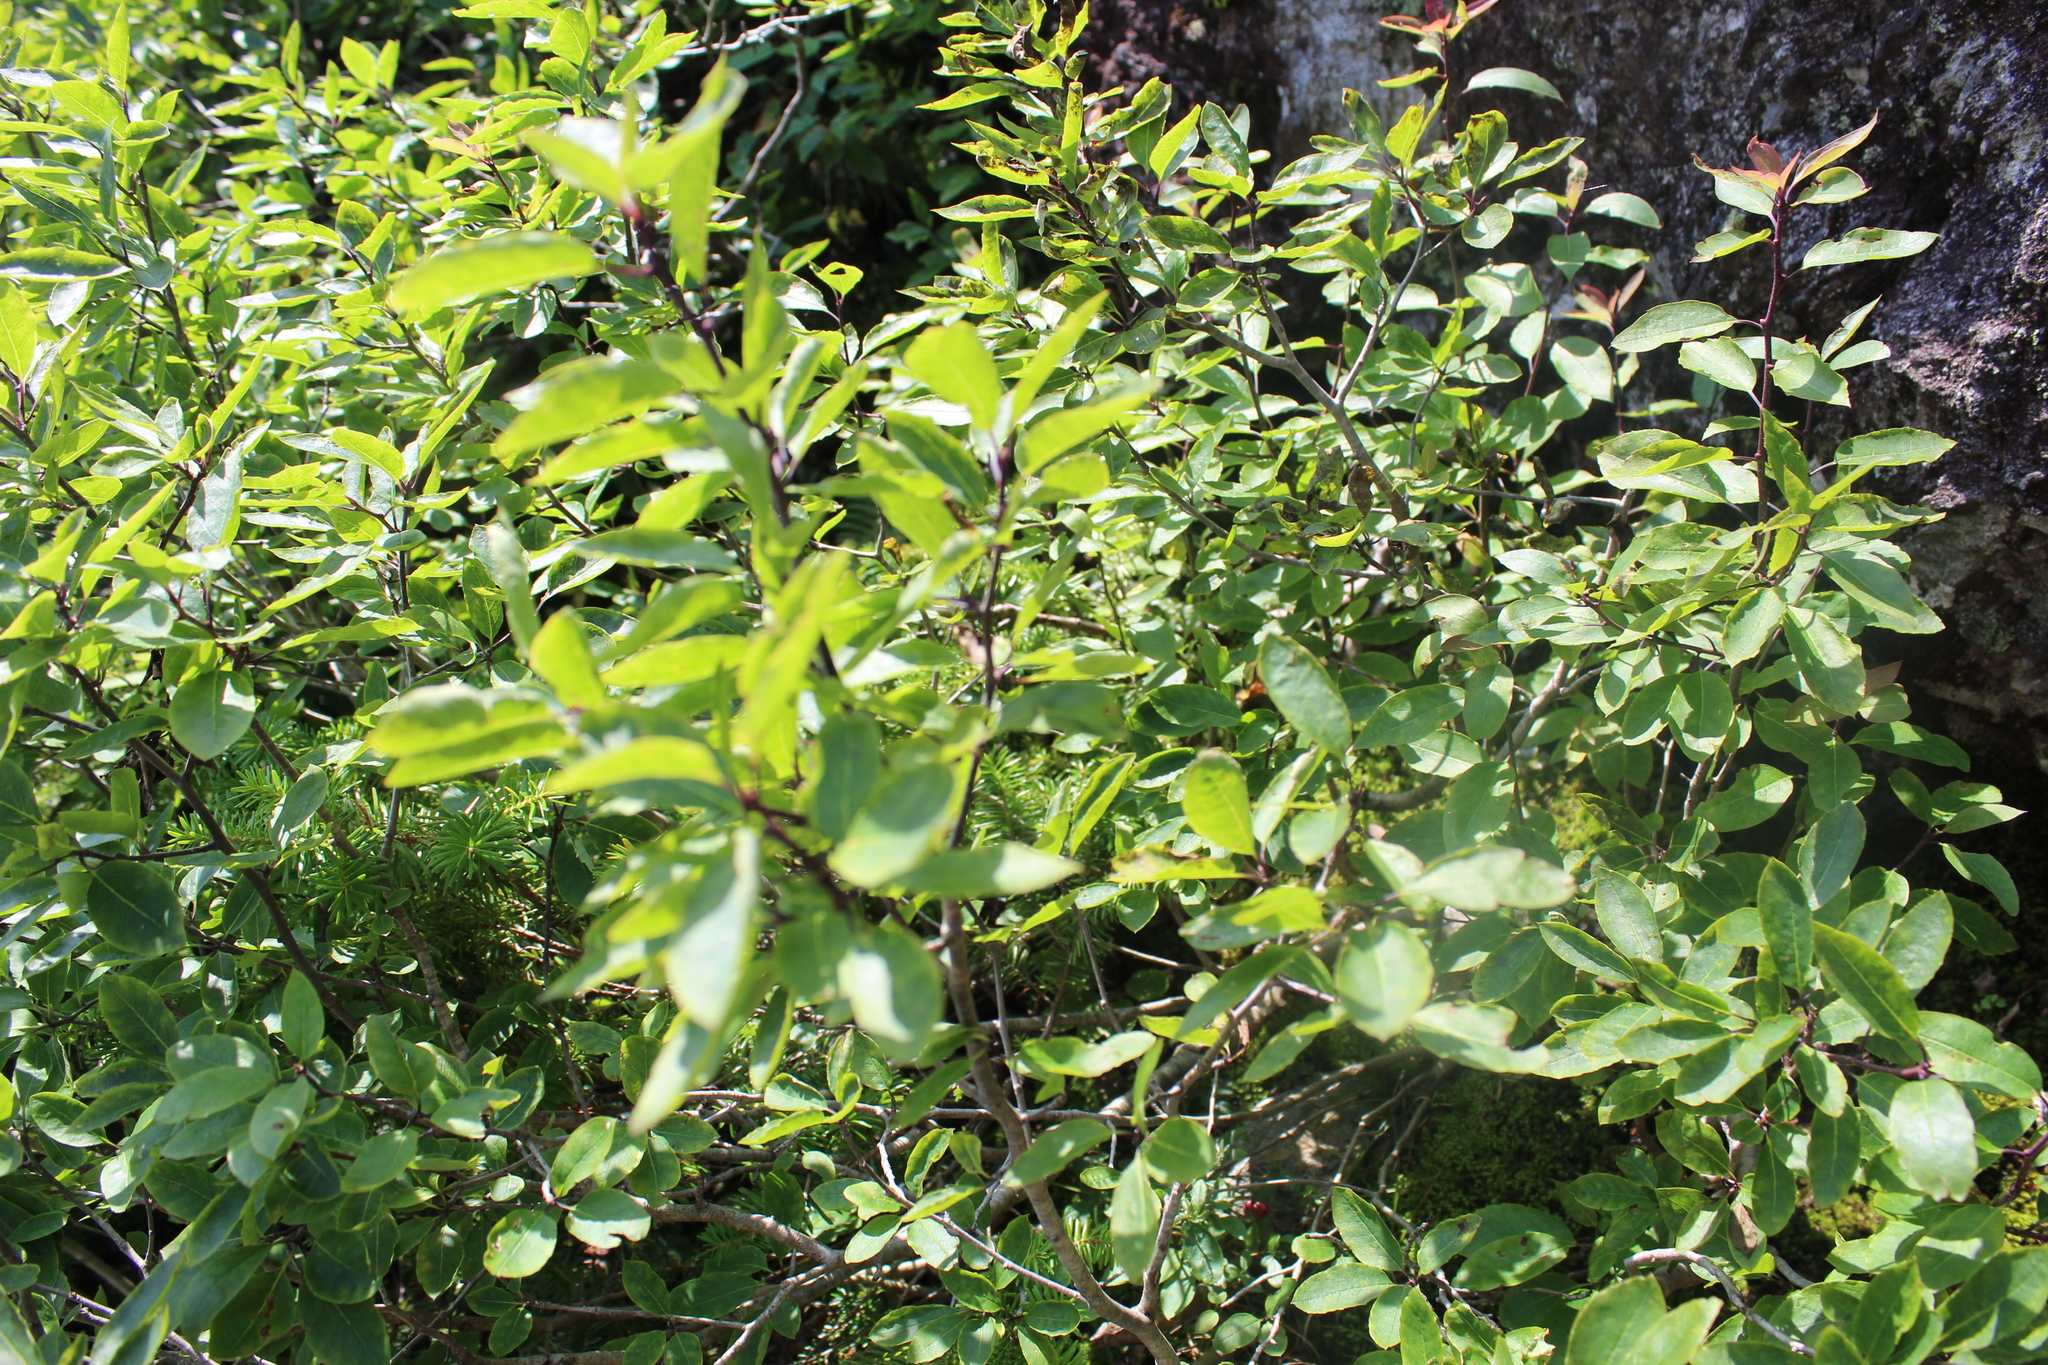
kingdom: Plantae
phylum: Tracheophyta
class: Magnoliopsida
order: Aquifoliales
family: Aquifoliaceae
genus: Ilex
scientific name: Ilex mucronata
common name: Catberry
